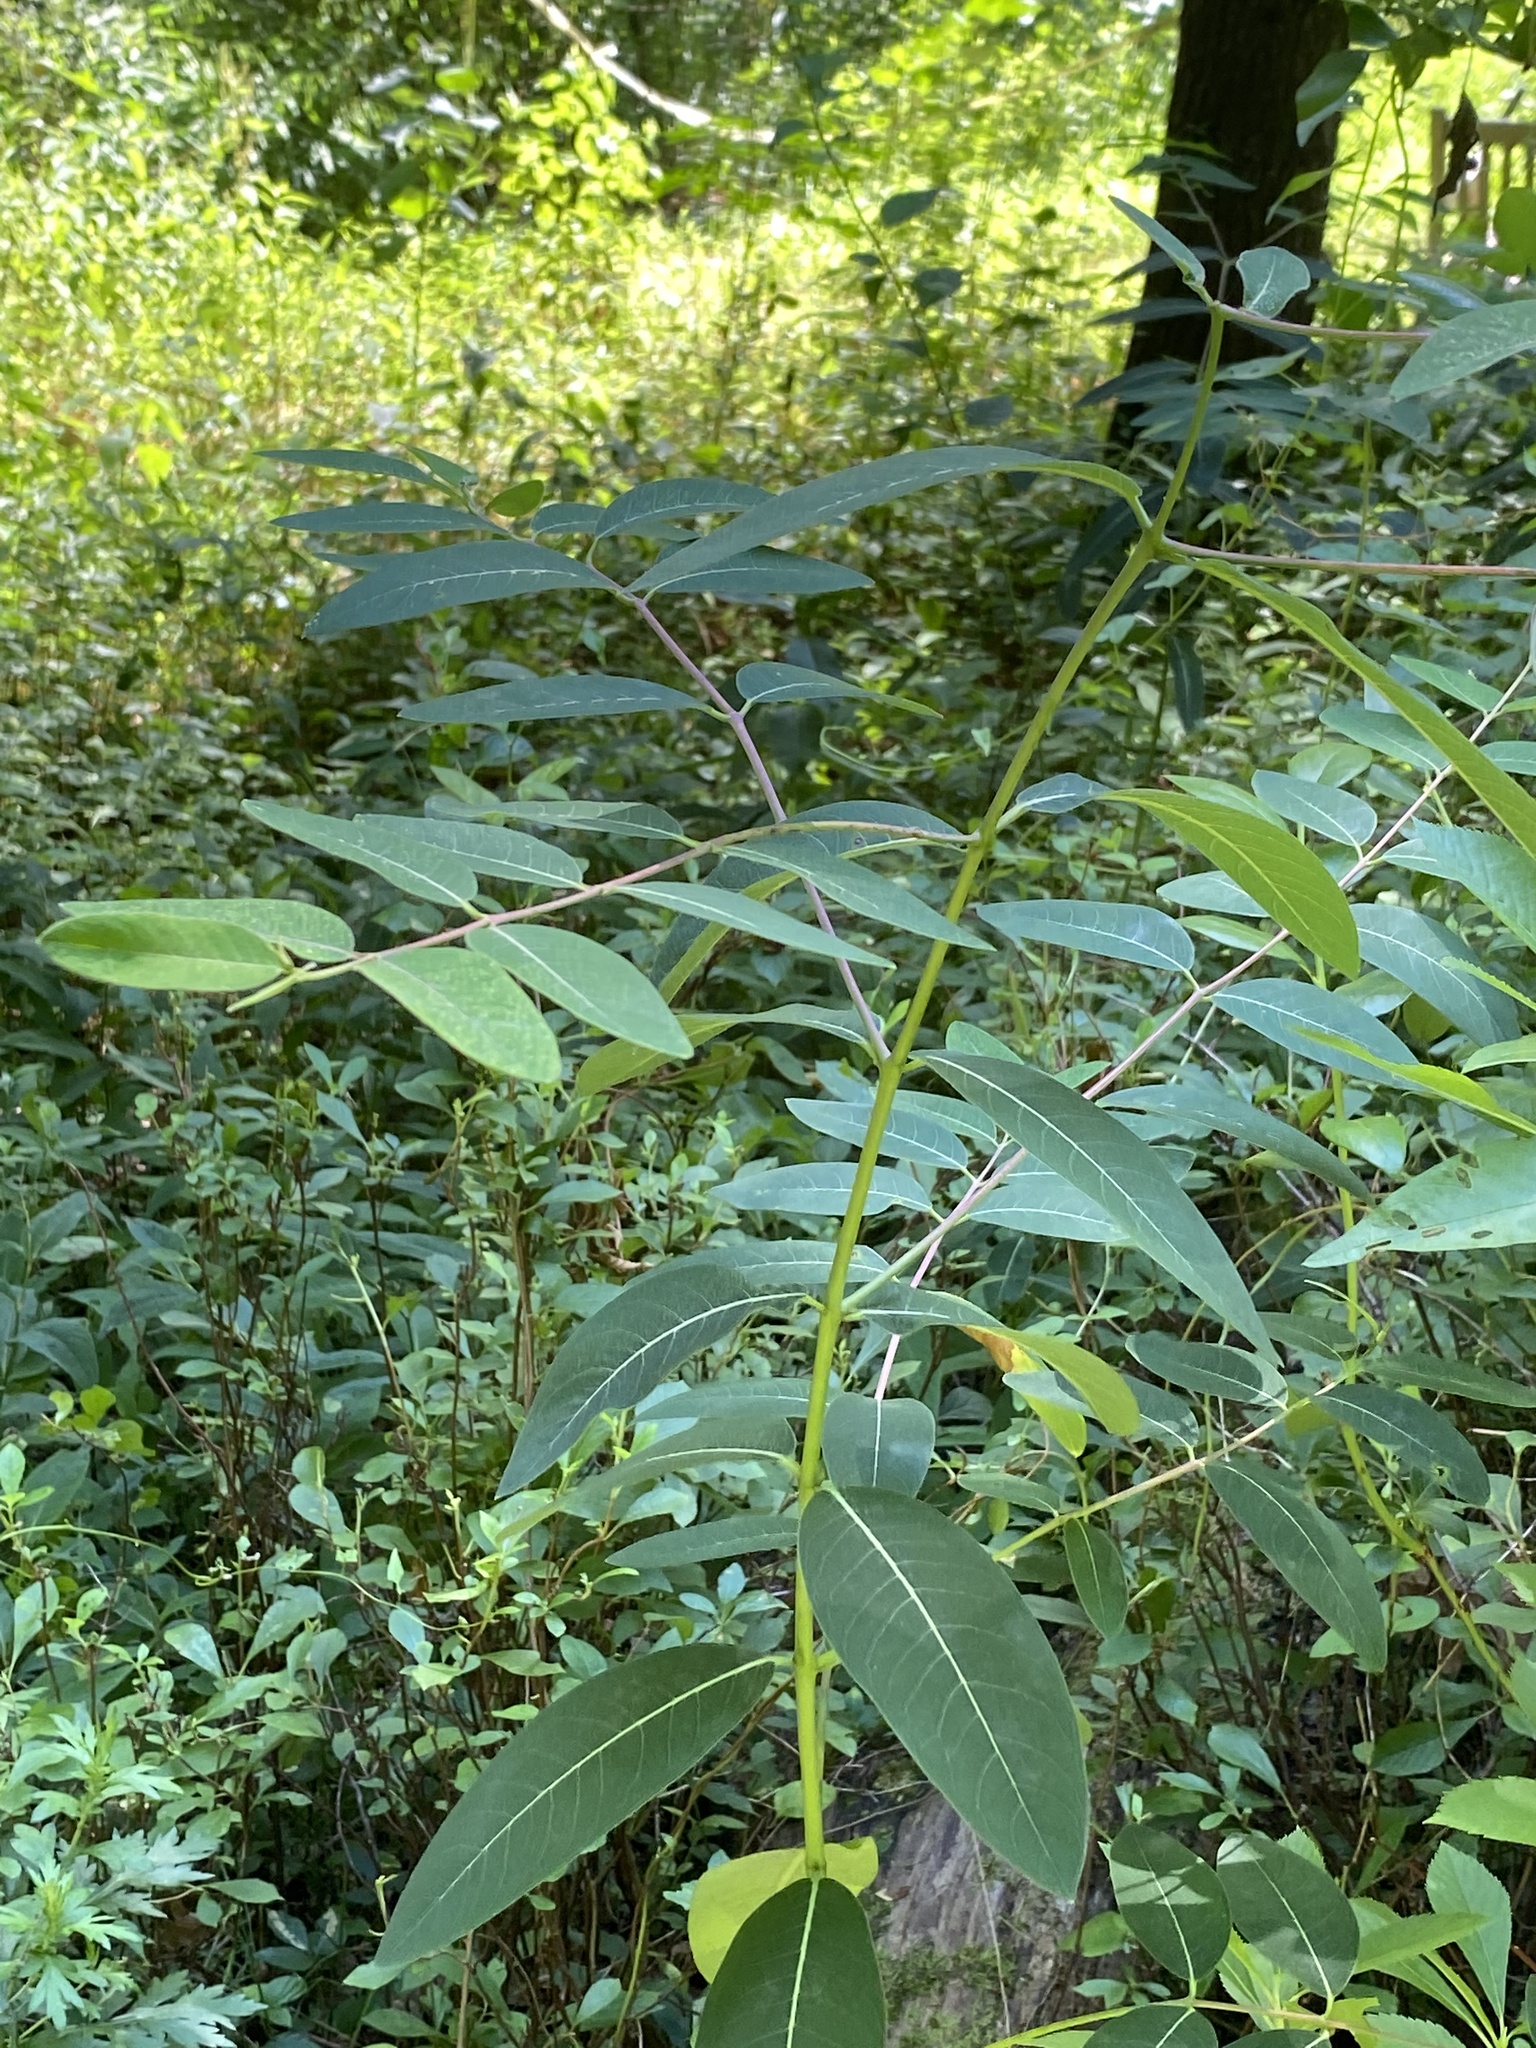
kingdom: Plantae
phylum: Tracheophyta
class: Magnoliopsida
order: Gentianales
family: Apocynaceae
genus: Apocynum
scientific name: Apocynum cannabinum
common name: Hemp dogbane
